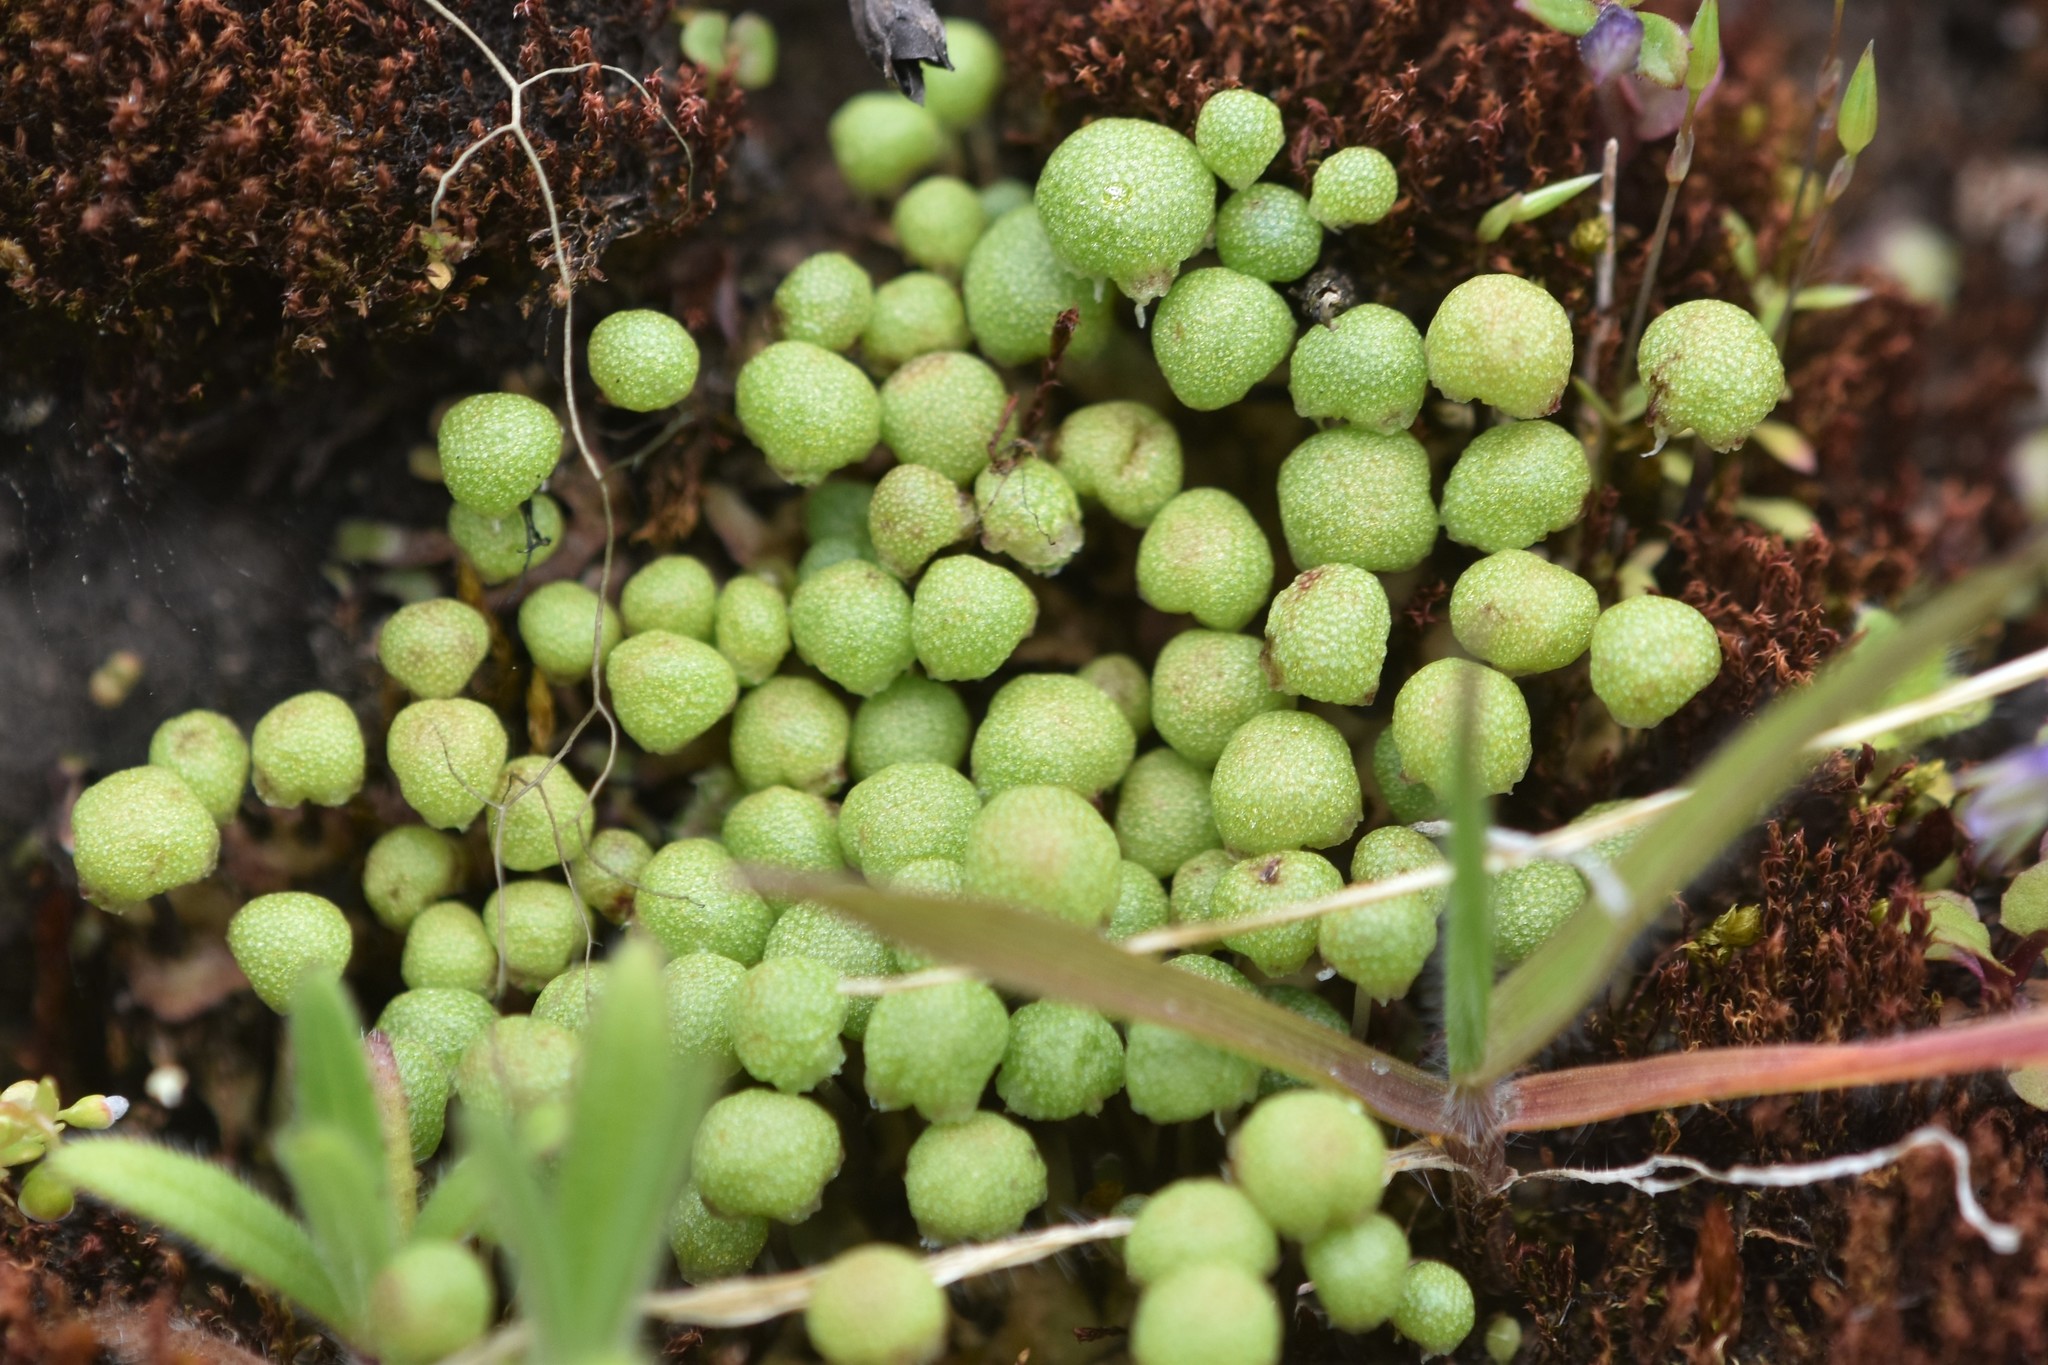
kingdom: Plantae
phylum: Marchantiophyta
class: Marchantiopsida
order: Marchantiales
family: Aytoniaceae
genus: Mannia
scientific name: Mannia gracilis
